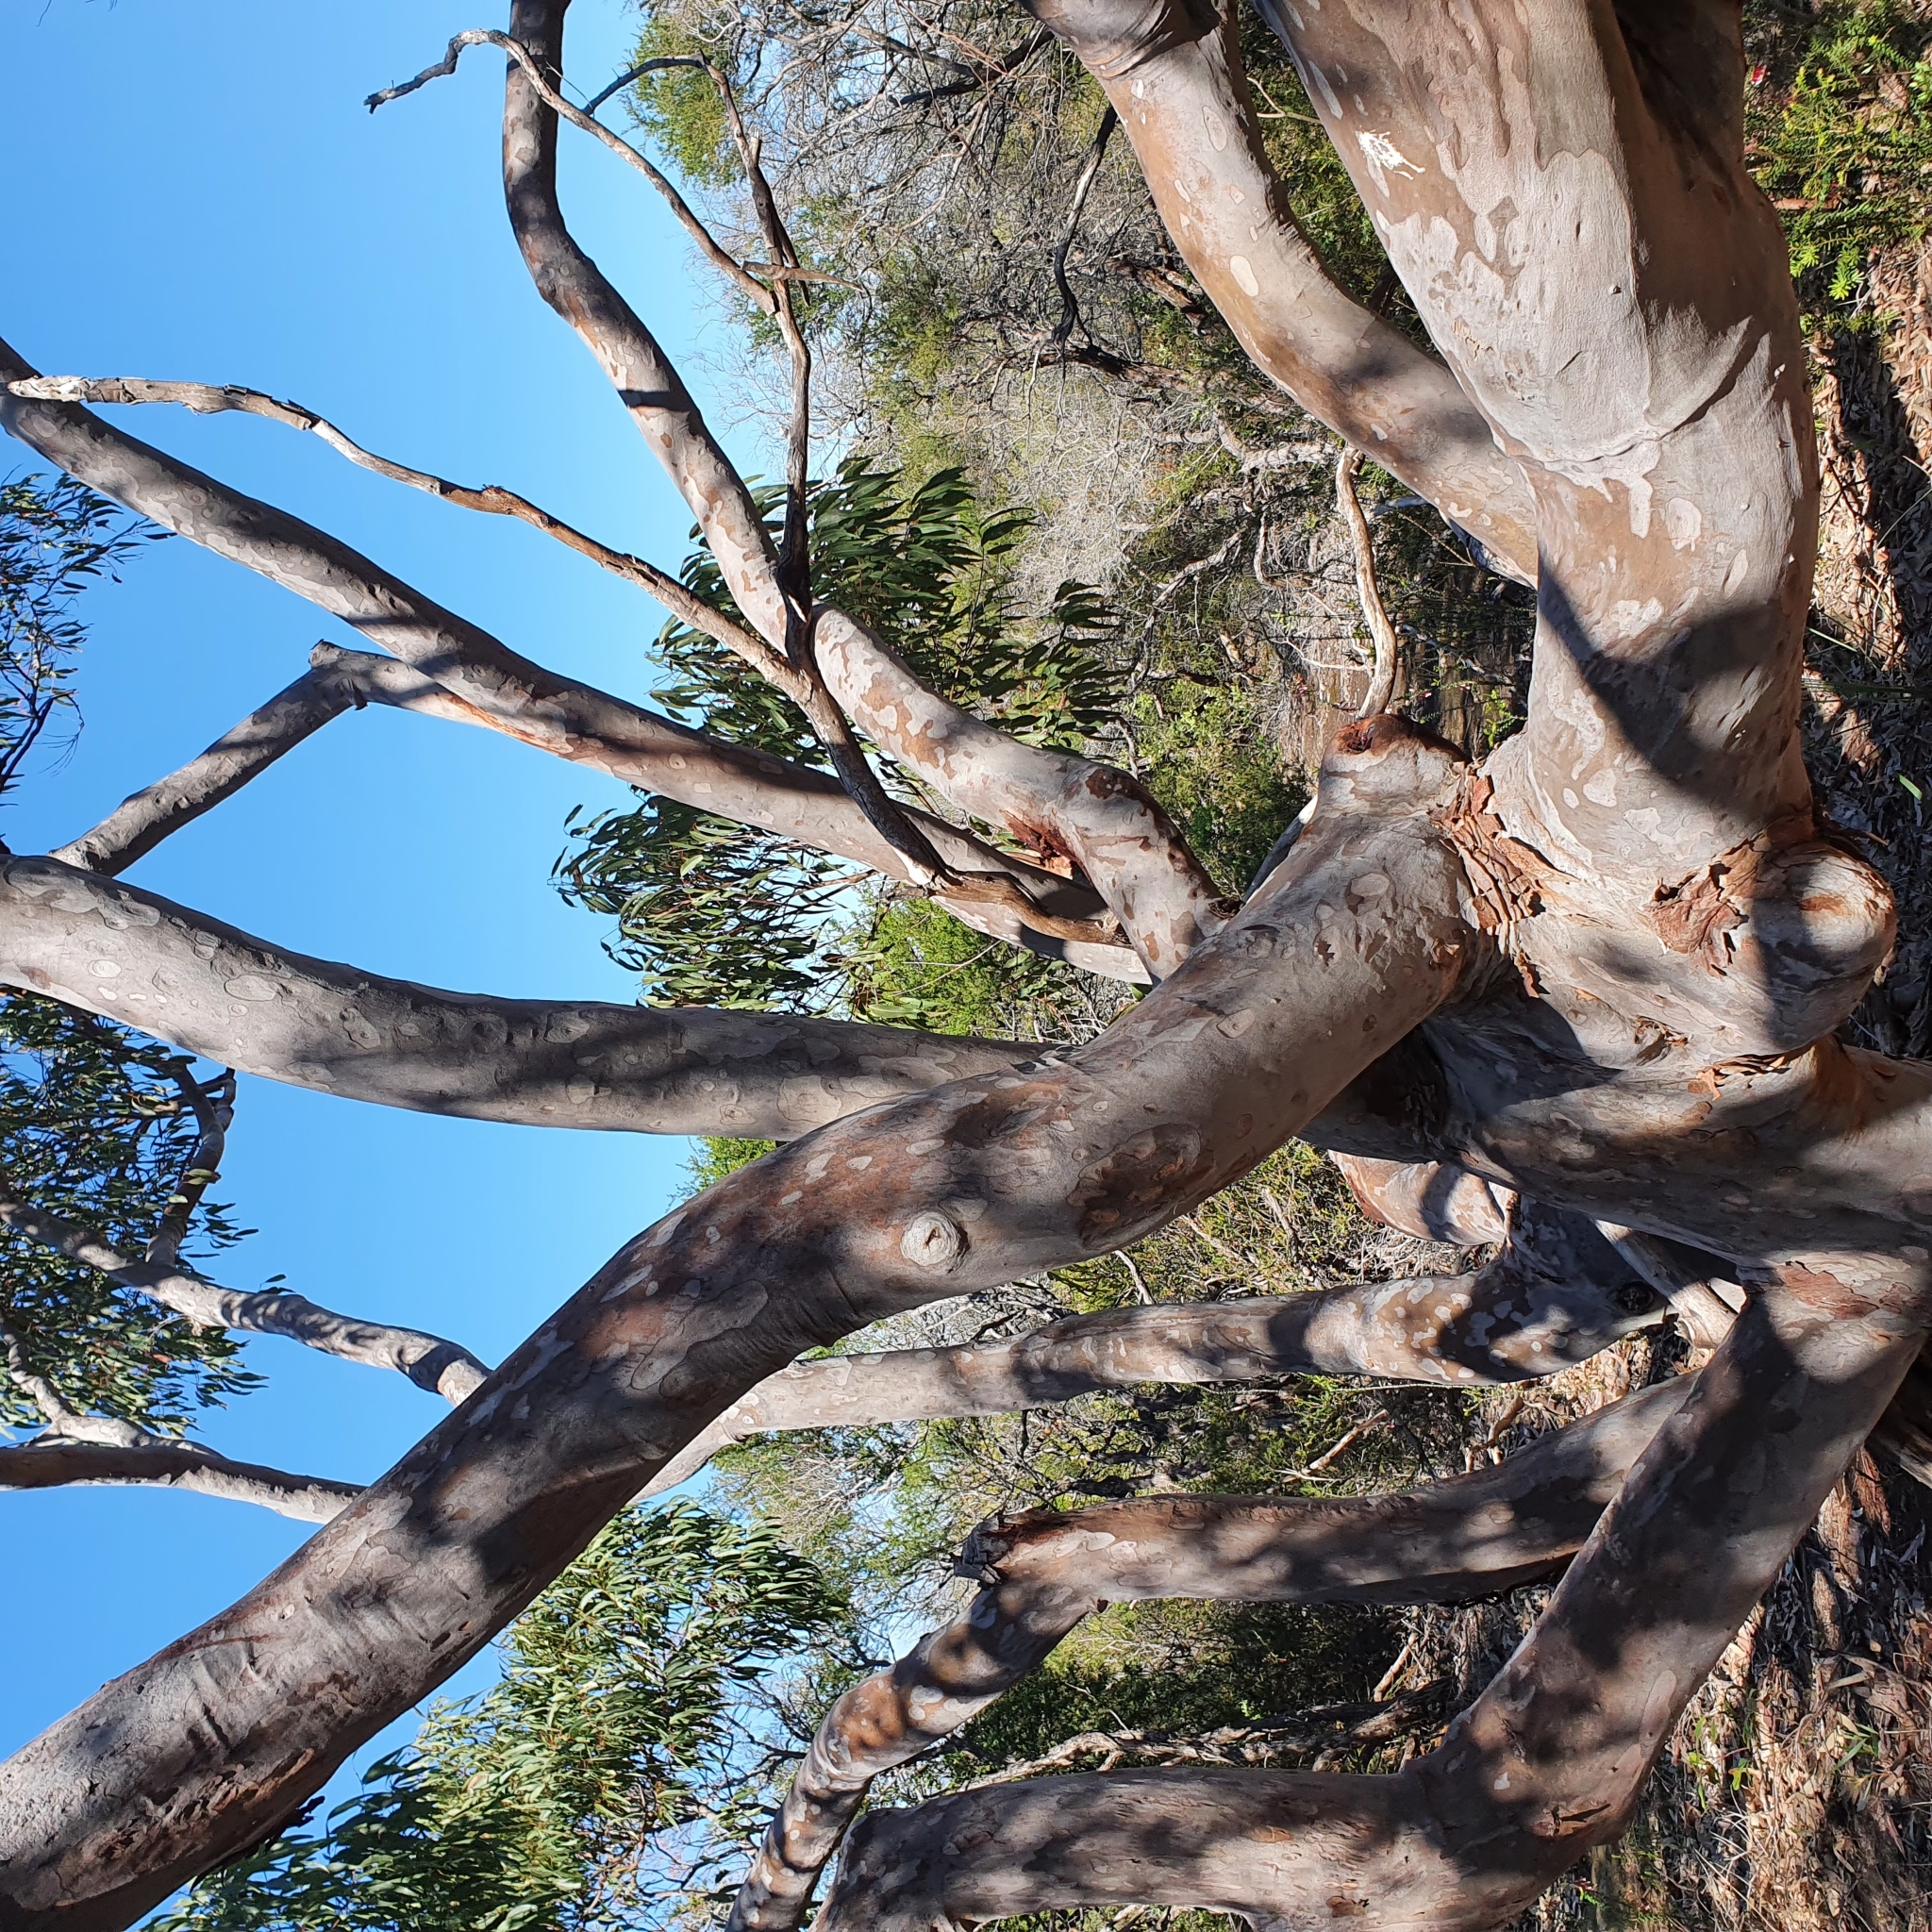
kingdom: Plantae
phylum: Tracheophyta
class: Magnoliopsida
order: Myrtales
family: Myrtaceae
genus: Angophora
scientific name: Angophora costata
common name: Gum myrtle
